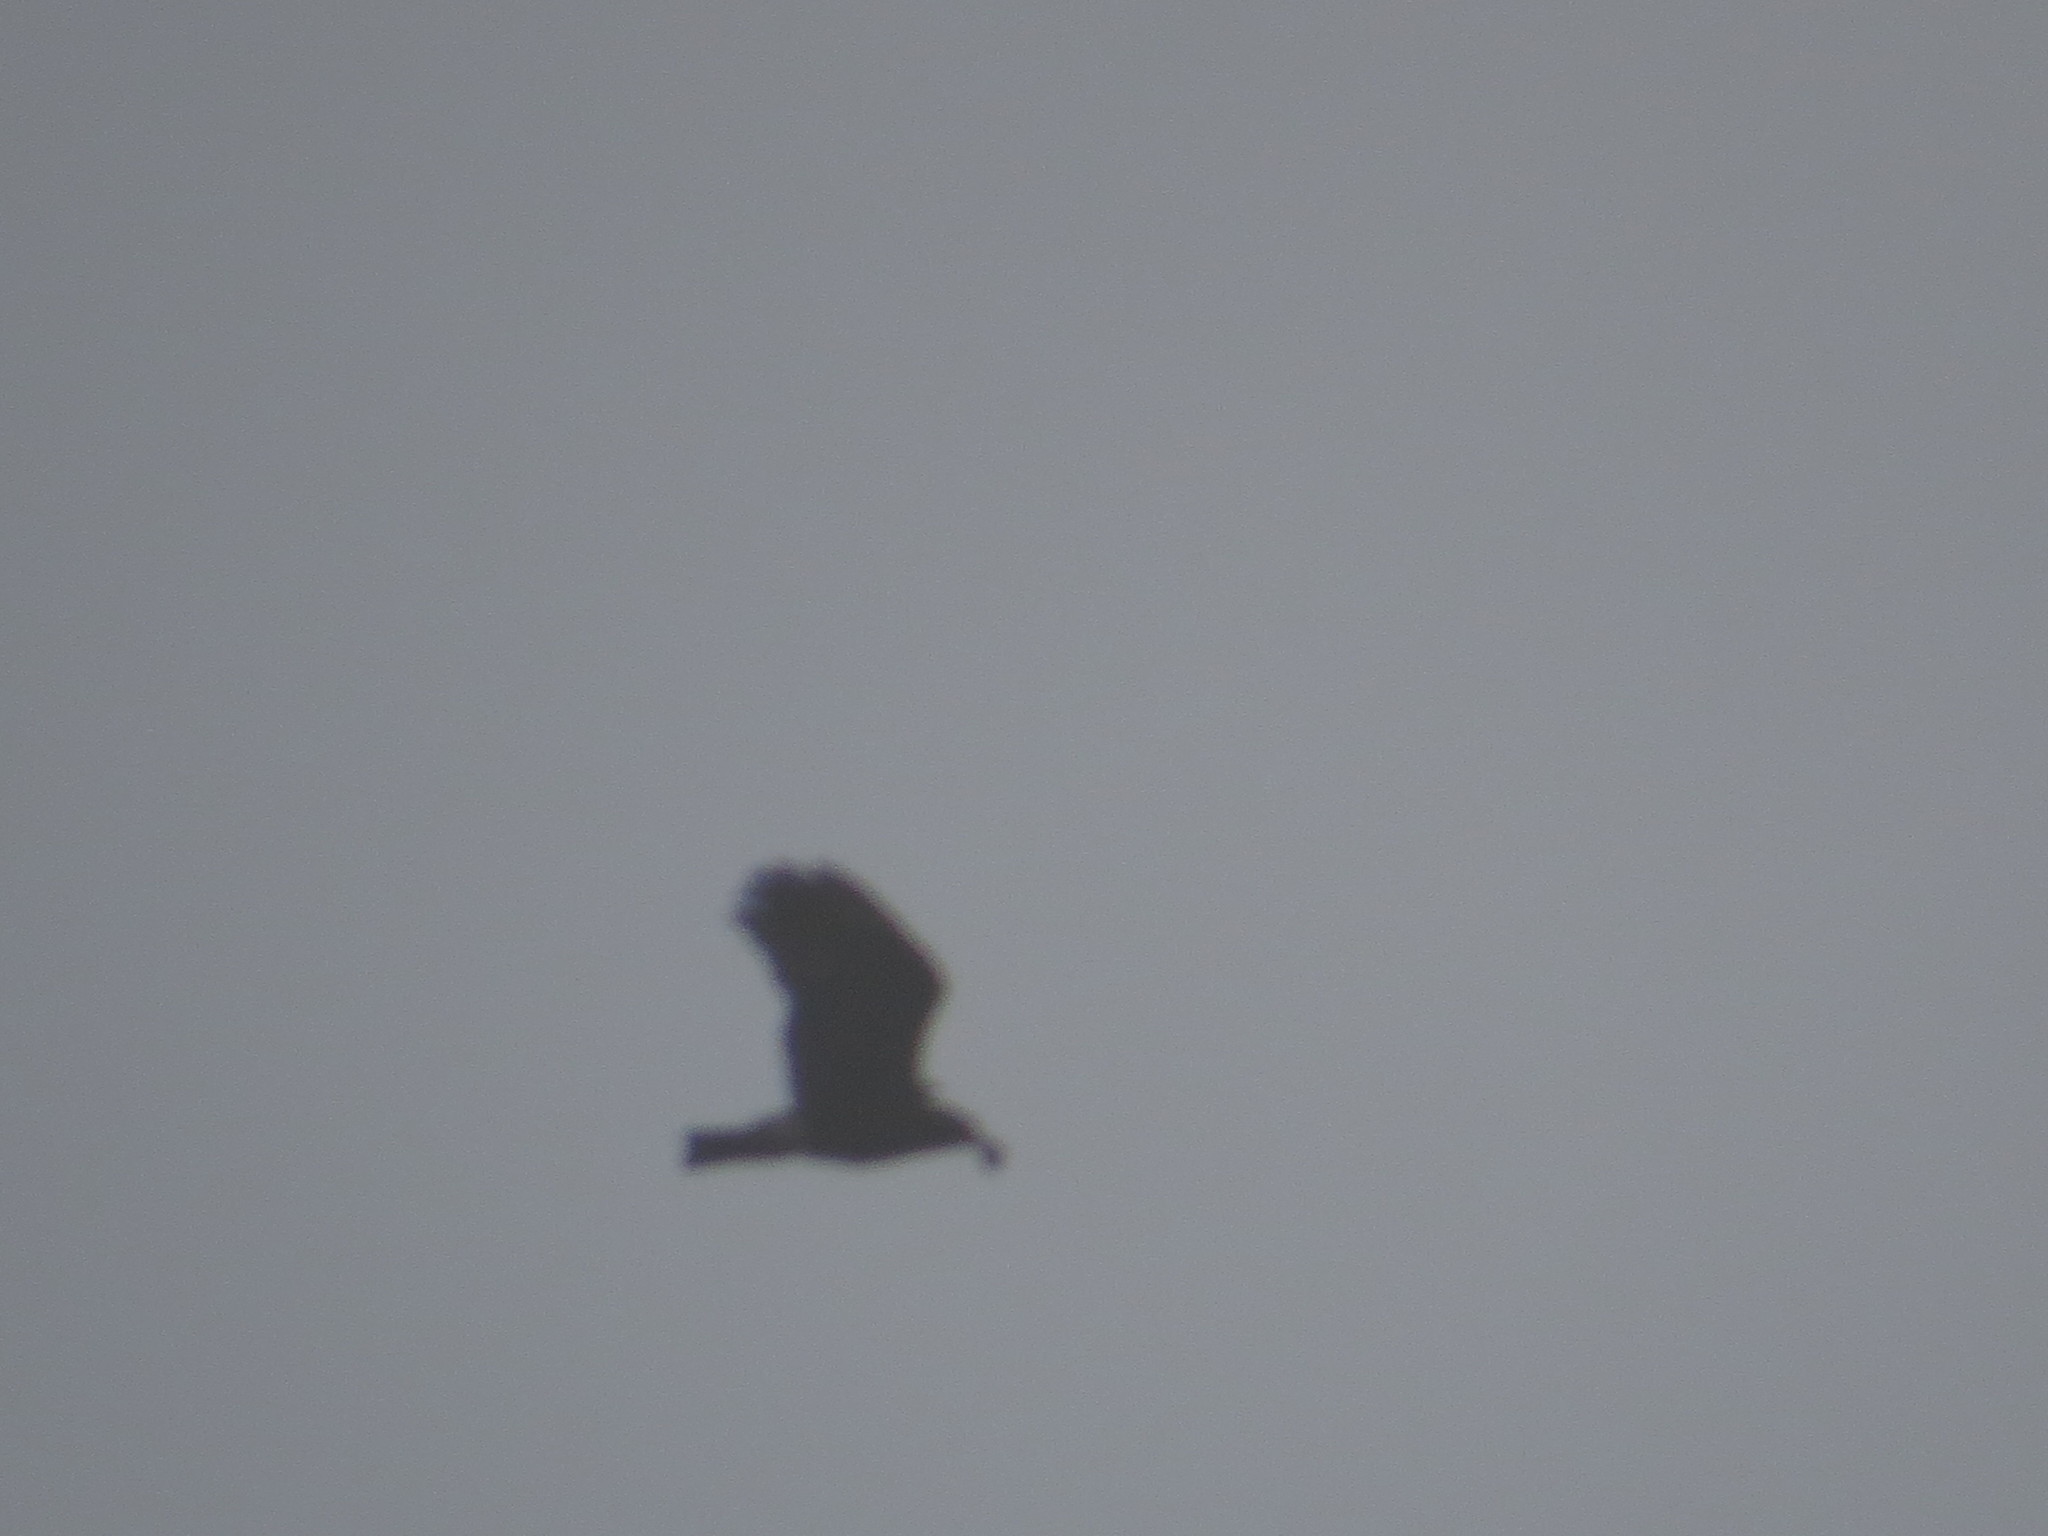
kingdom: Animalia
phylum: Chordata
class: Aves
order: Accipitriformes
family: Accipitridae
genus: Rostrhamus
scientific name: Rostrhamus sociabilis
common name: Snail kite
